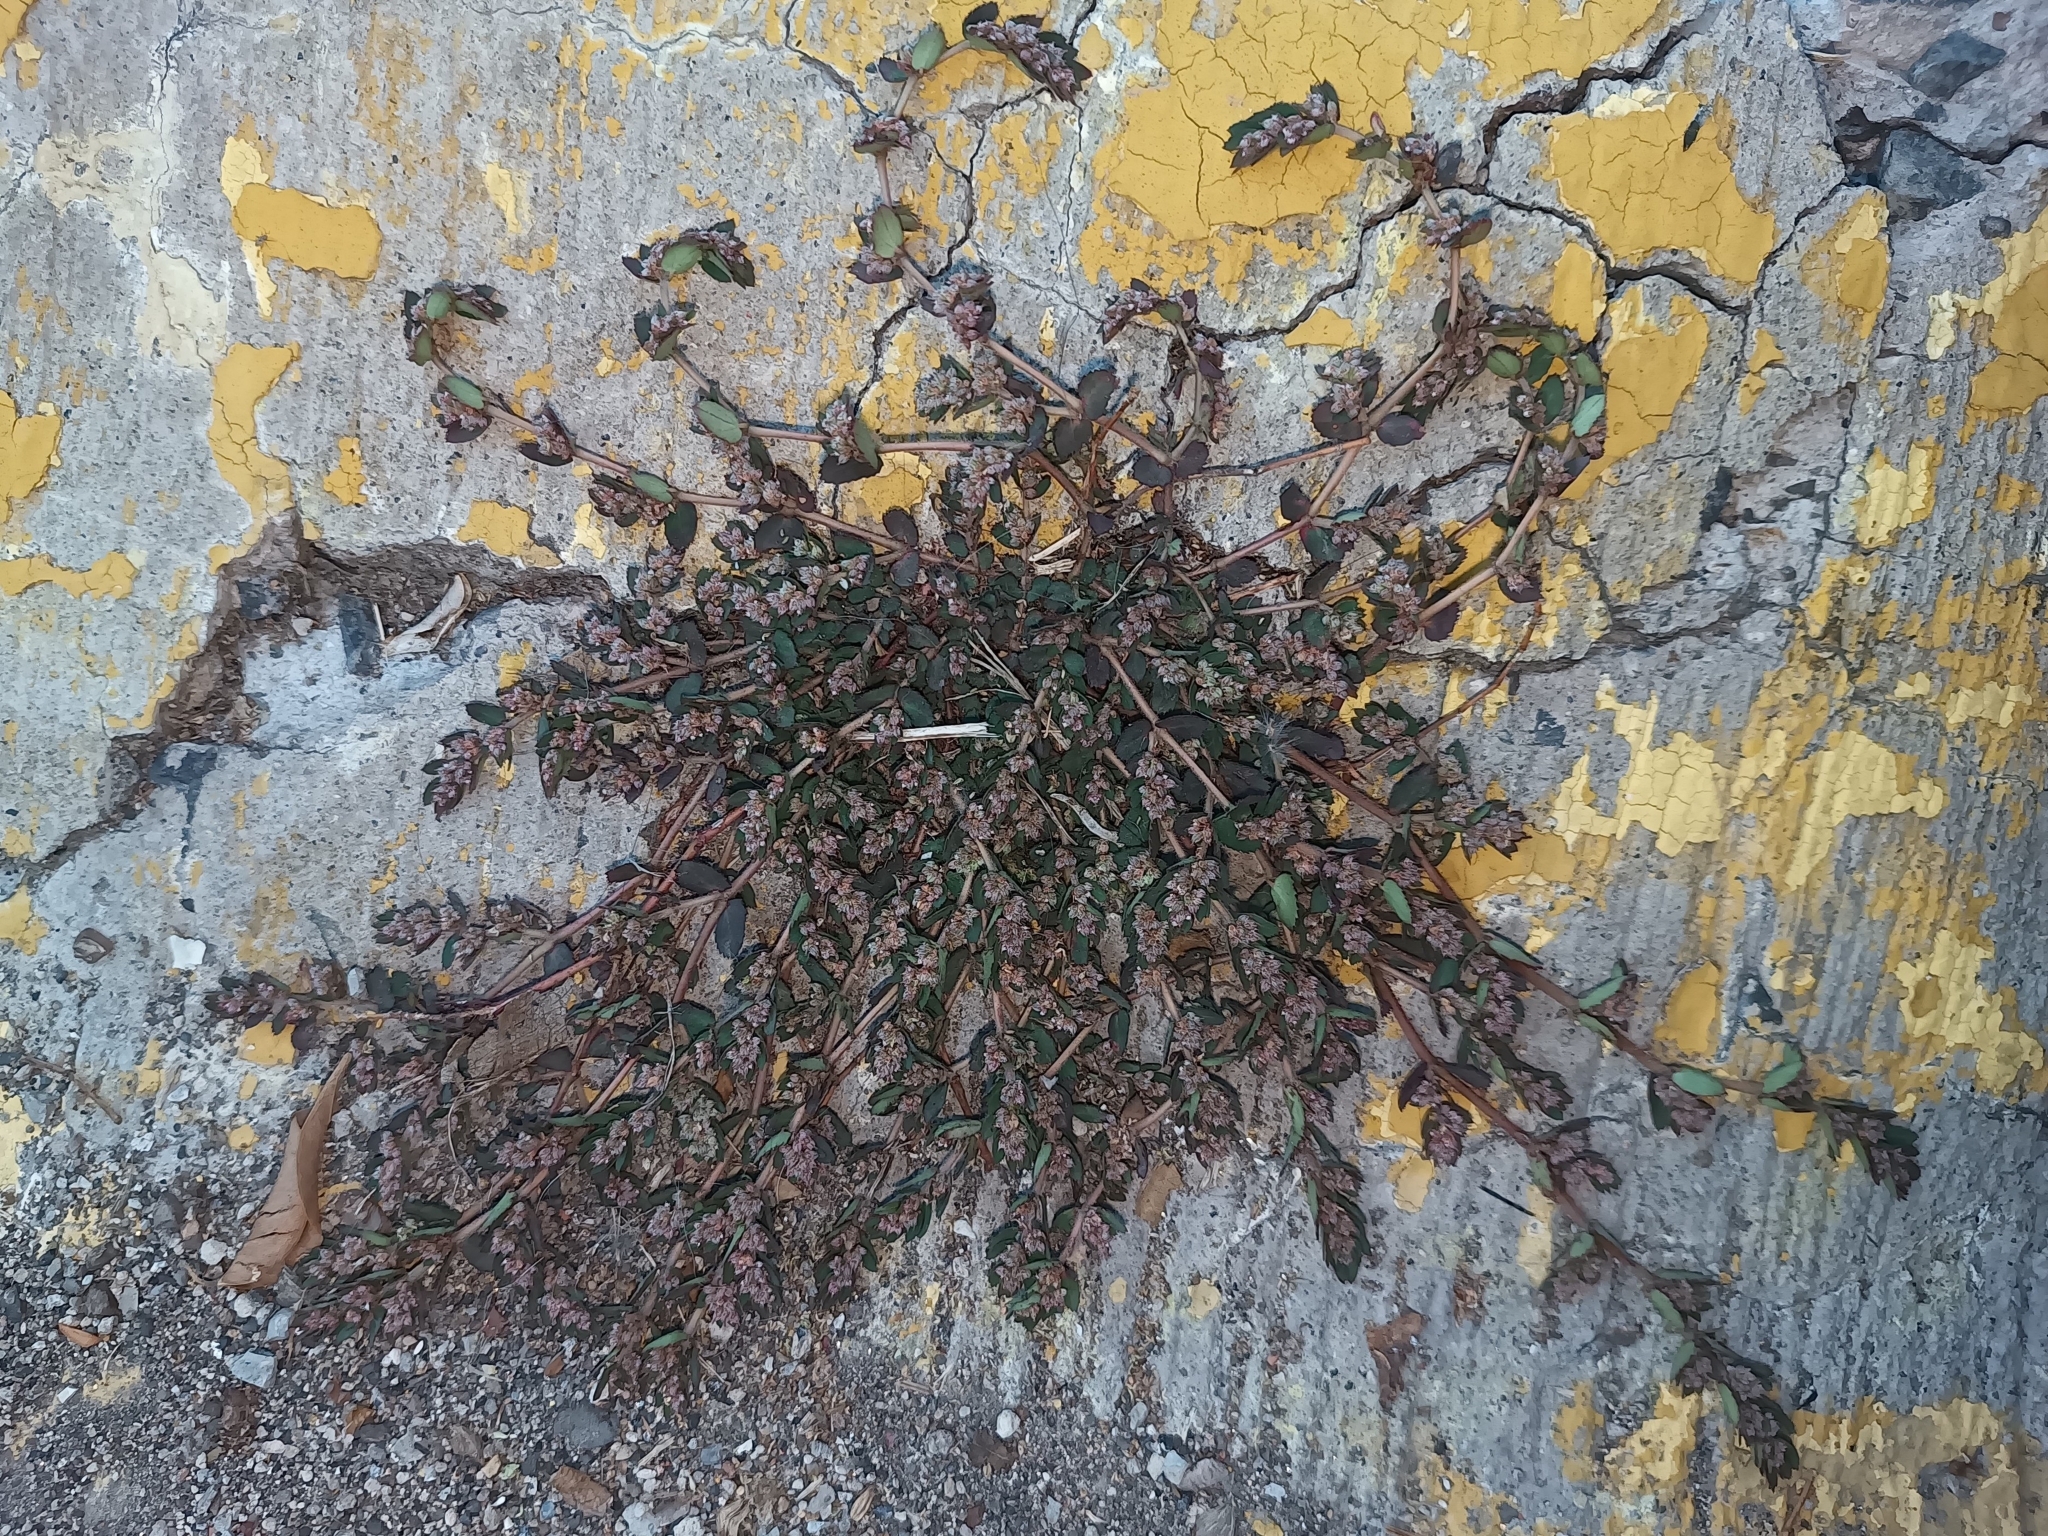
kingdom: Plantae
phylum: Tracheophyta
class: Magnoliopsida
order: Malpighiales
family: Euphorbiaceae
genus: Euphorbia
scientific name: Euphorbia mendezii
